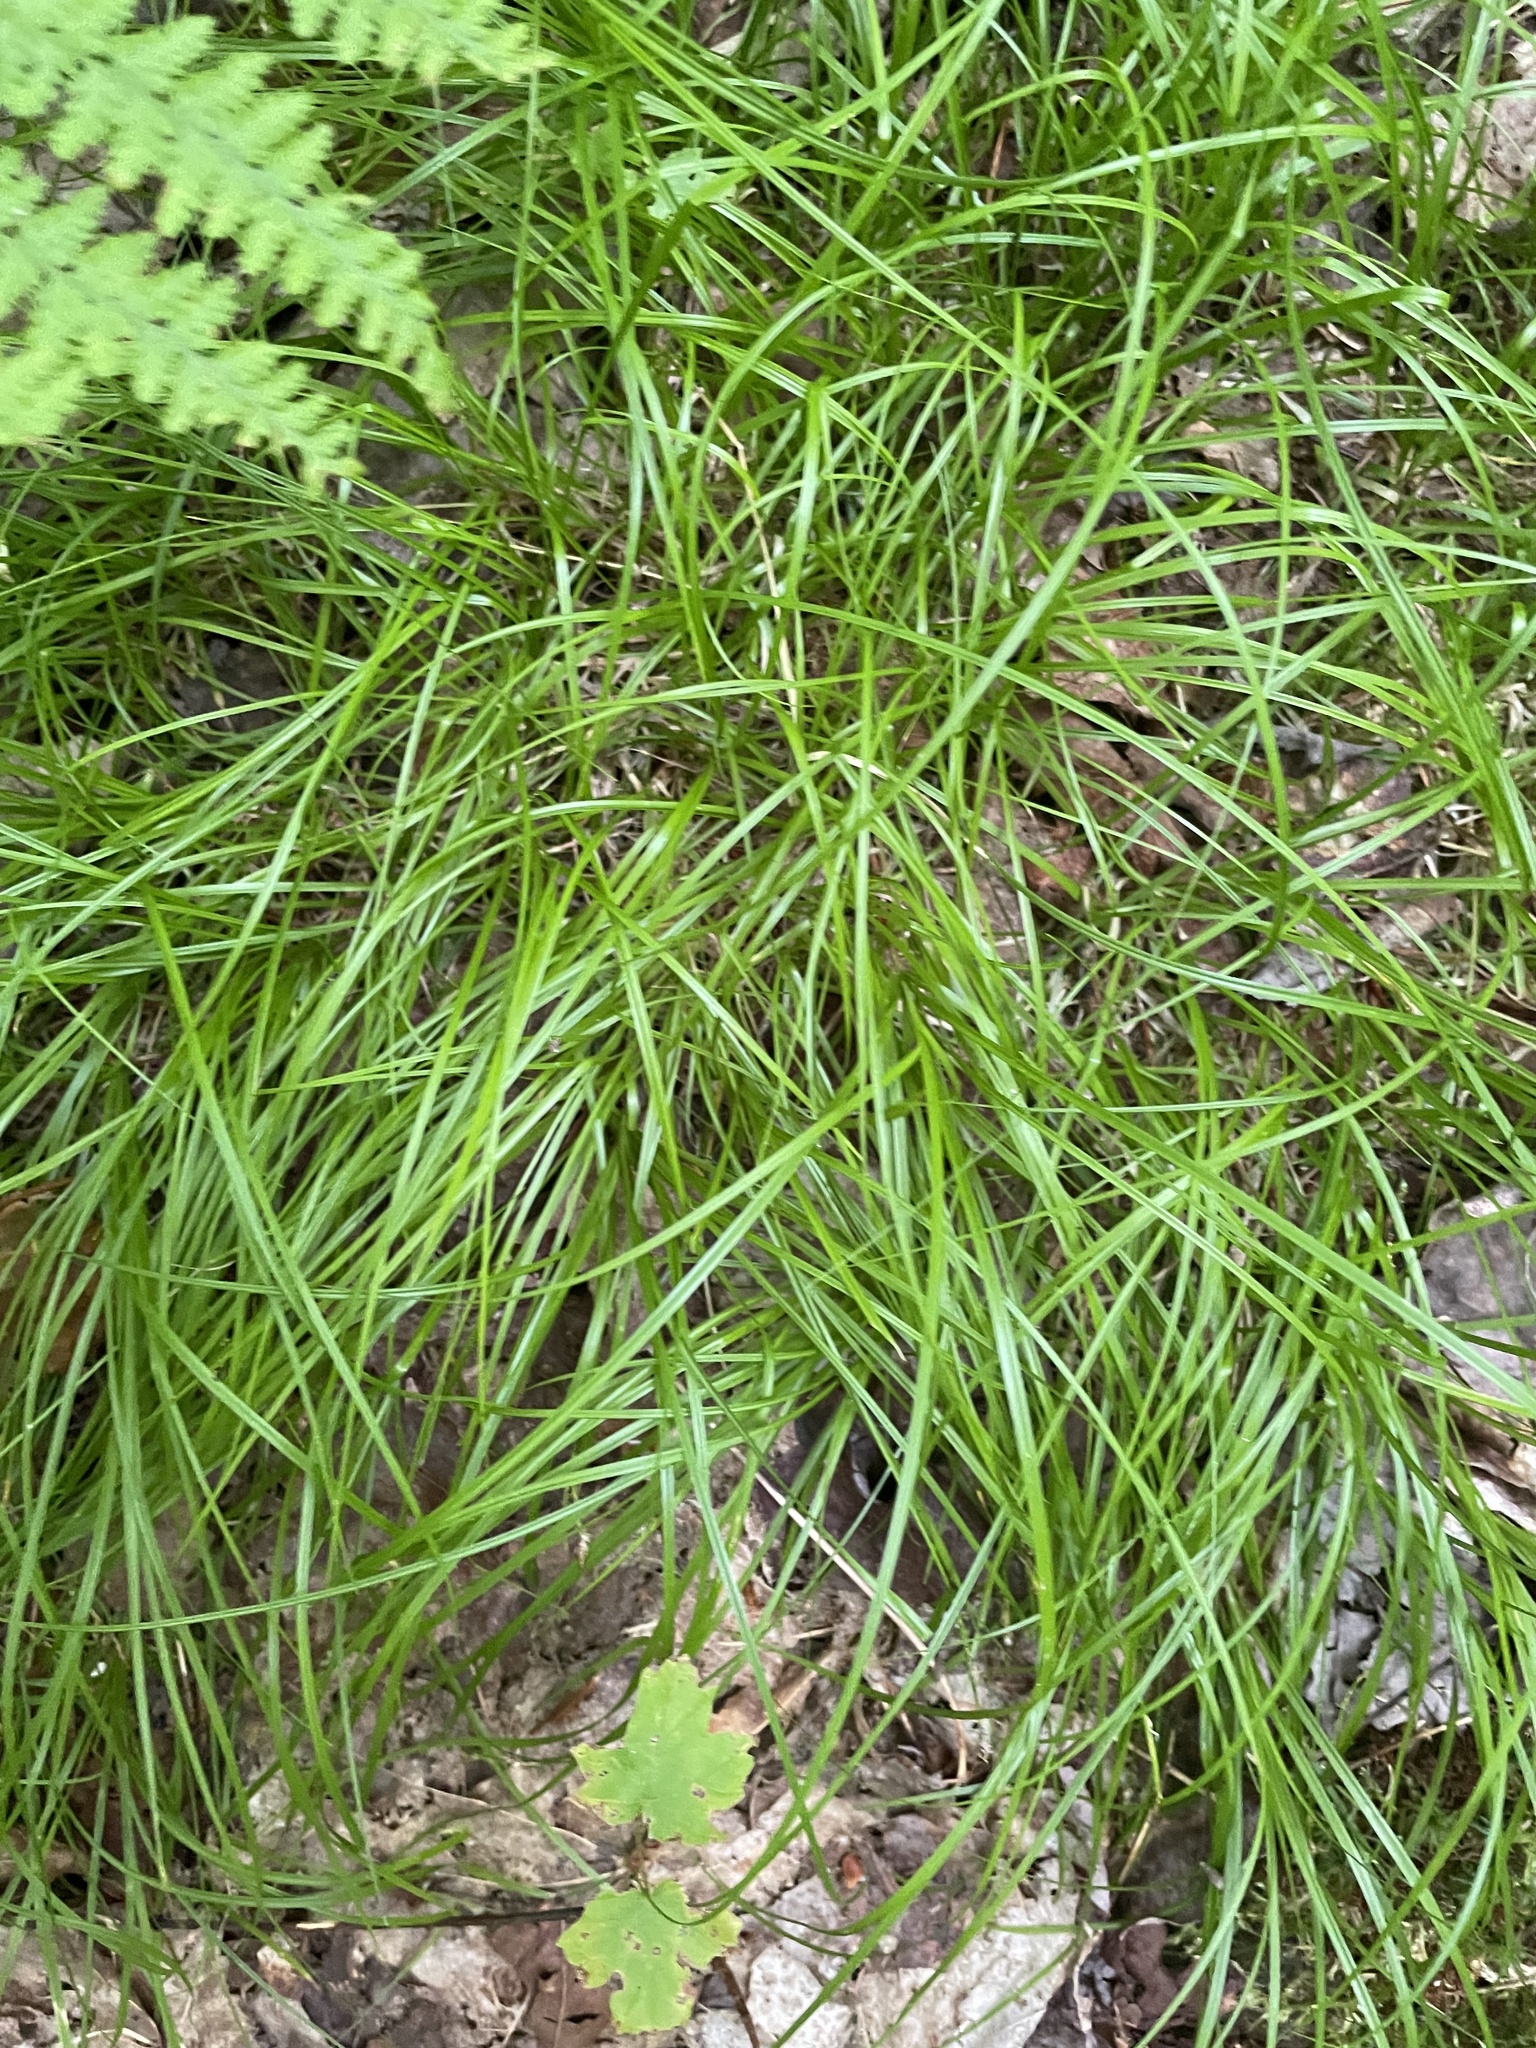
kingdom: Plantae
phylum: Tracheophyta
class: Liliopsida
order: Poales
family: Cyperaceae
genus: Carex
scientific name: Carex novae-angliae
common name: New england sedge
